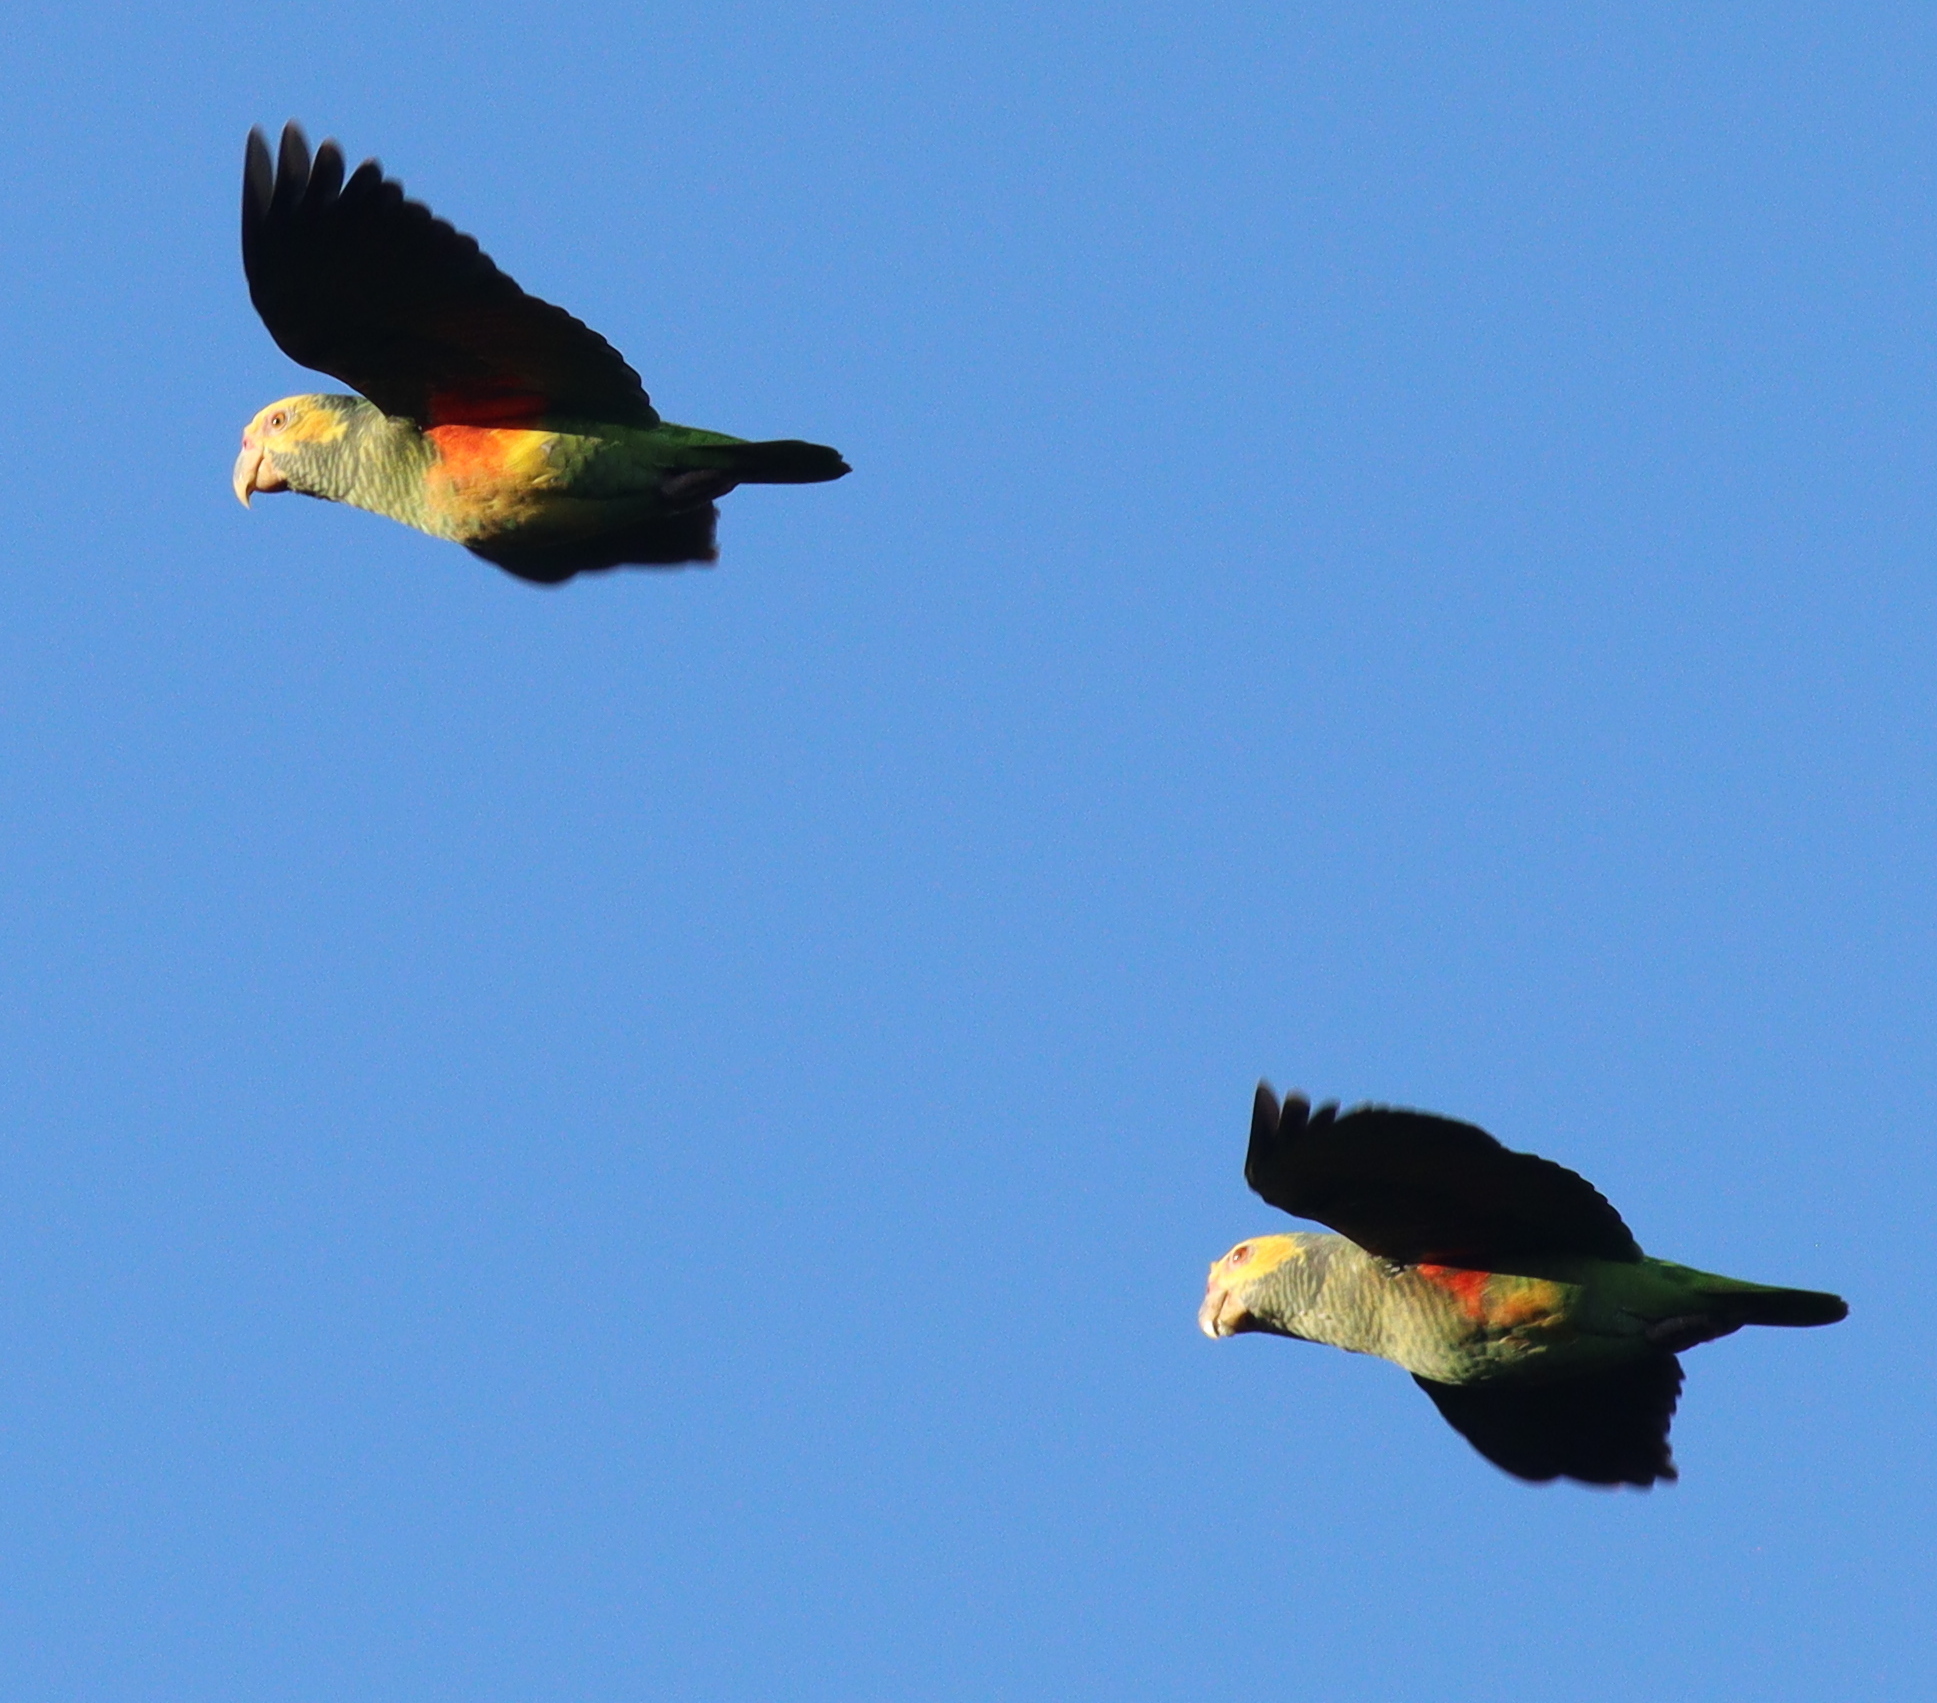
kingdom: Animalia
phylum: Chordata
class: Aves
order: Psittaciformes
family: Psittacidae
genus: Amazona
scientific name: Amazona xanthops
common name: Yellow-faced amazon
